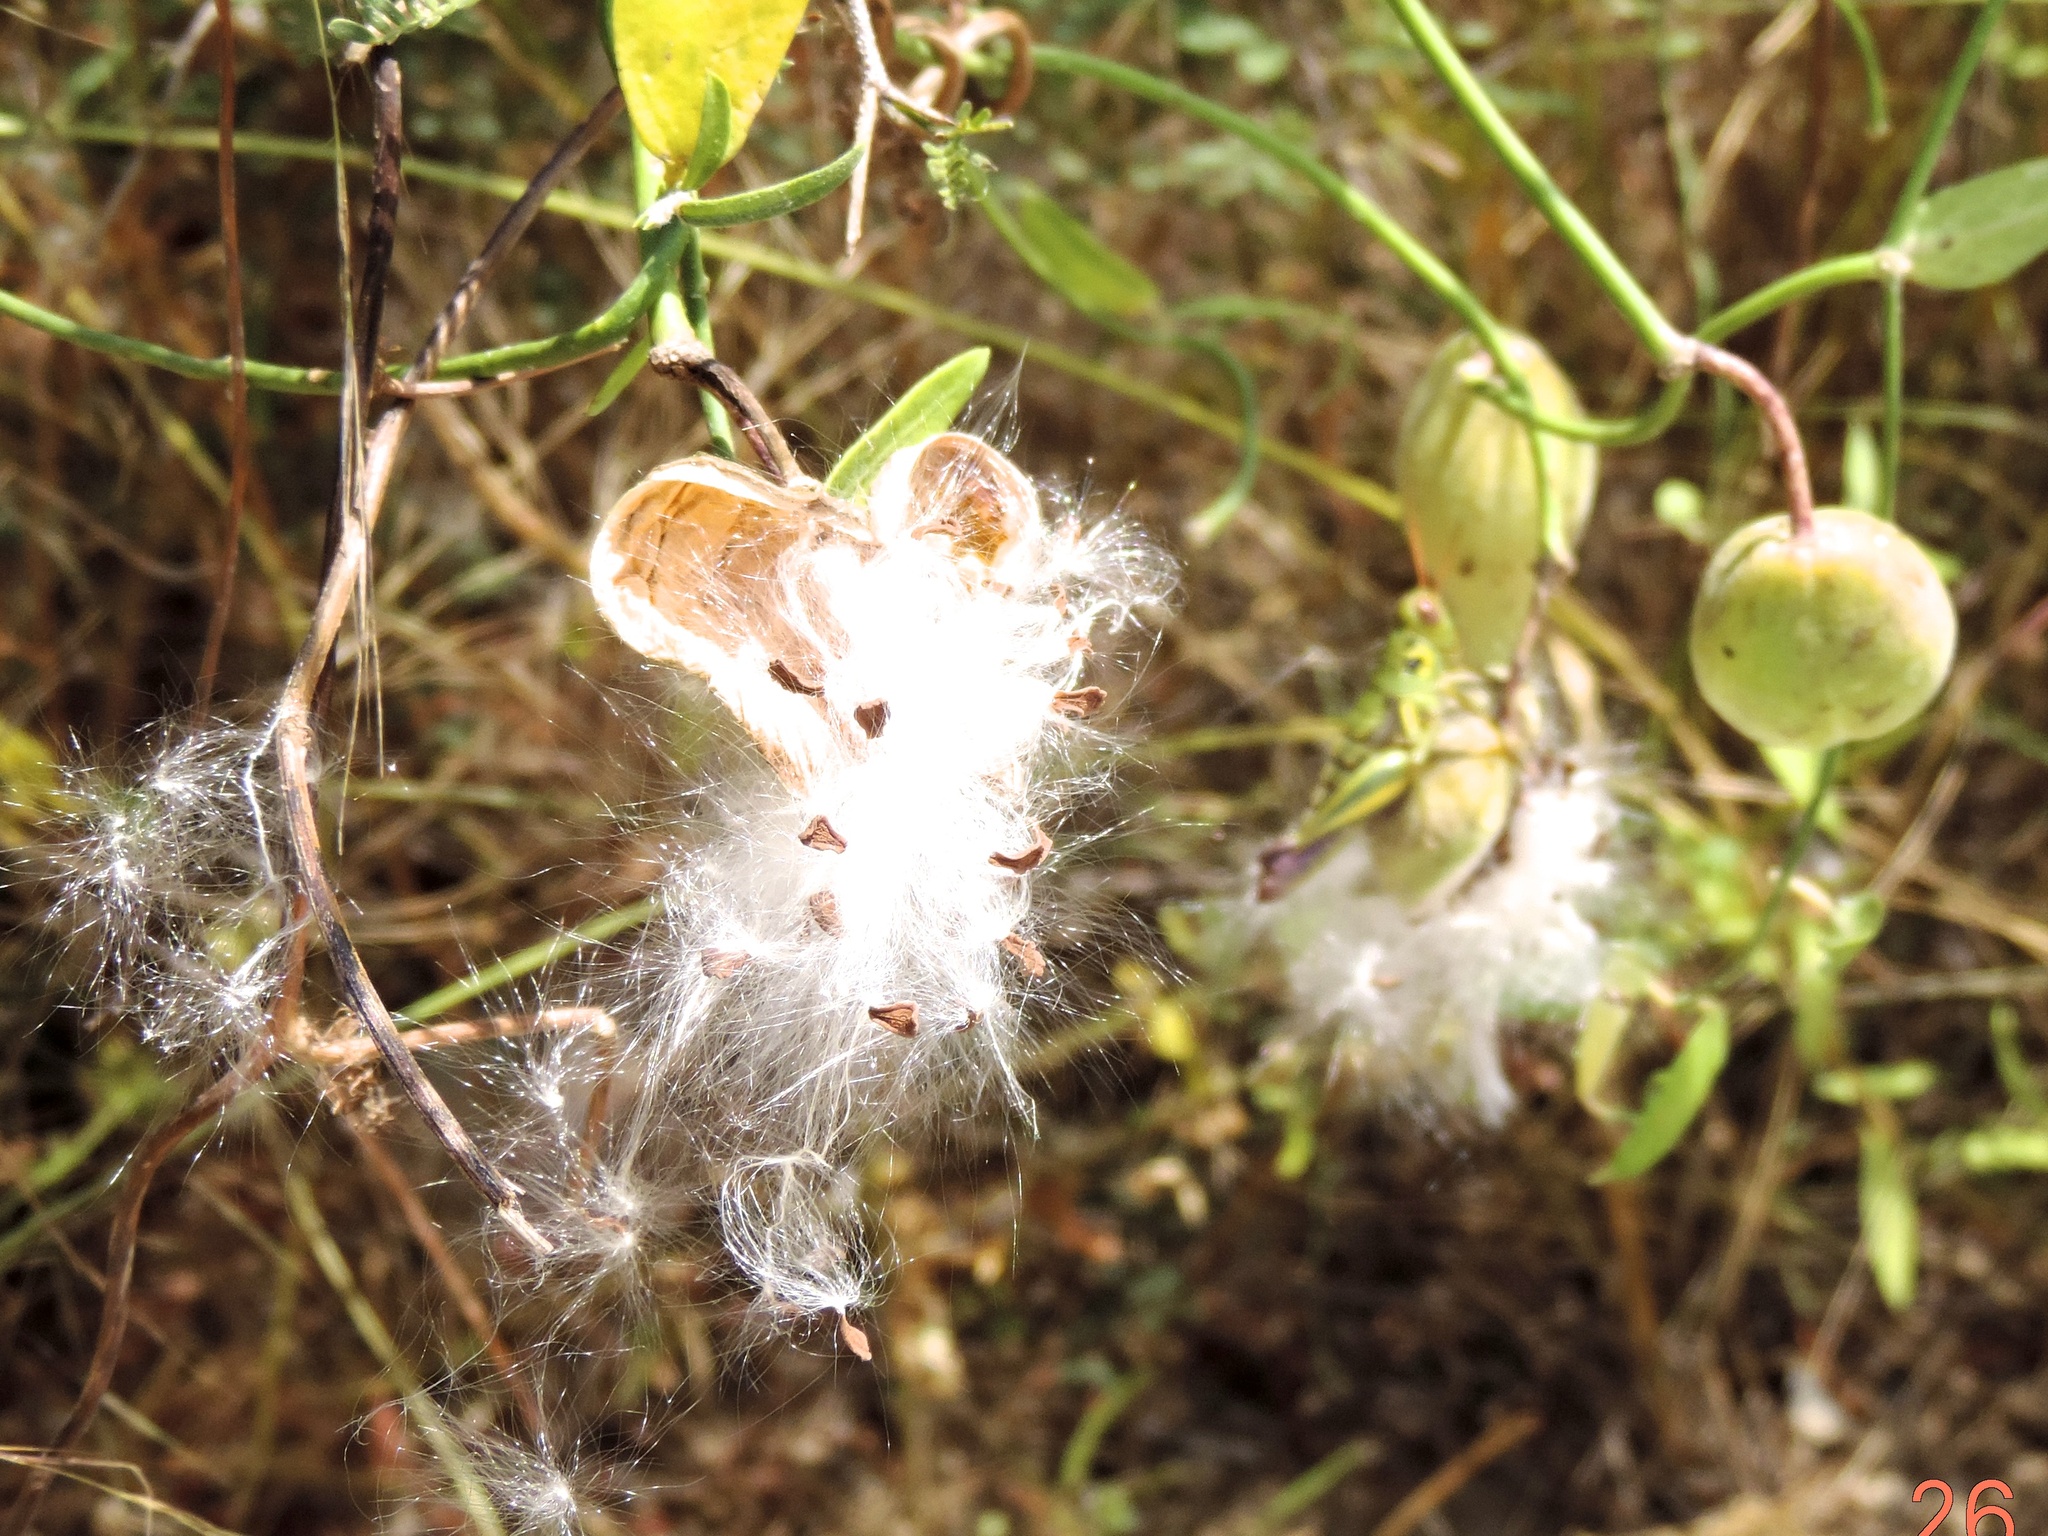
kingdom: Plantae
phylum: Tracheophyta
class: Magnoliopsida
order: Gentianales
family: Apocynaceae
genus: Funastrum
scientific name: Funastrum clausum
